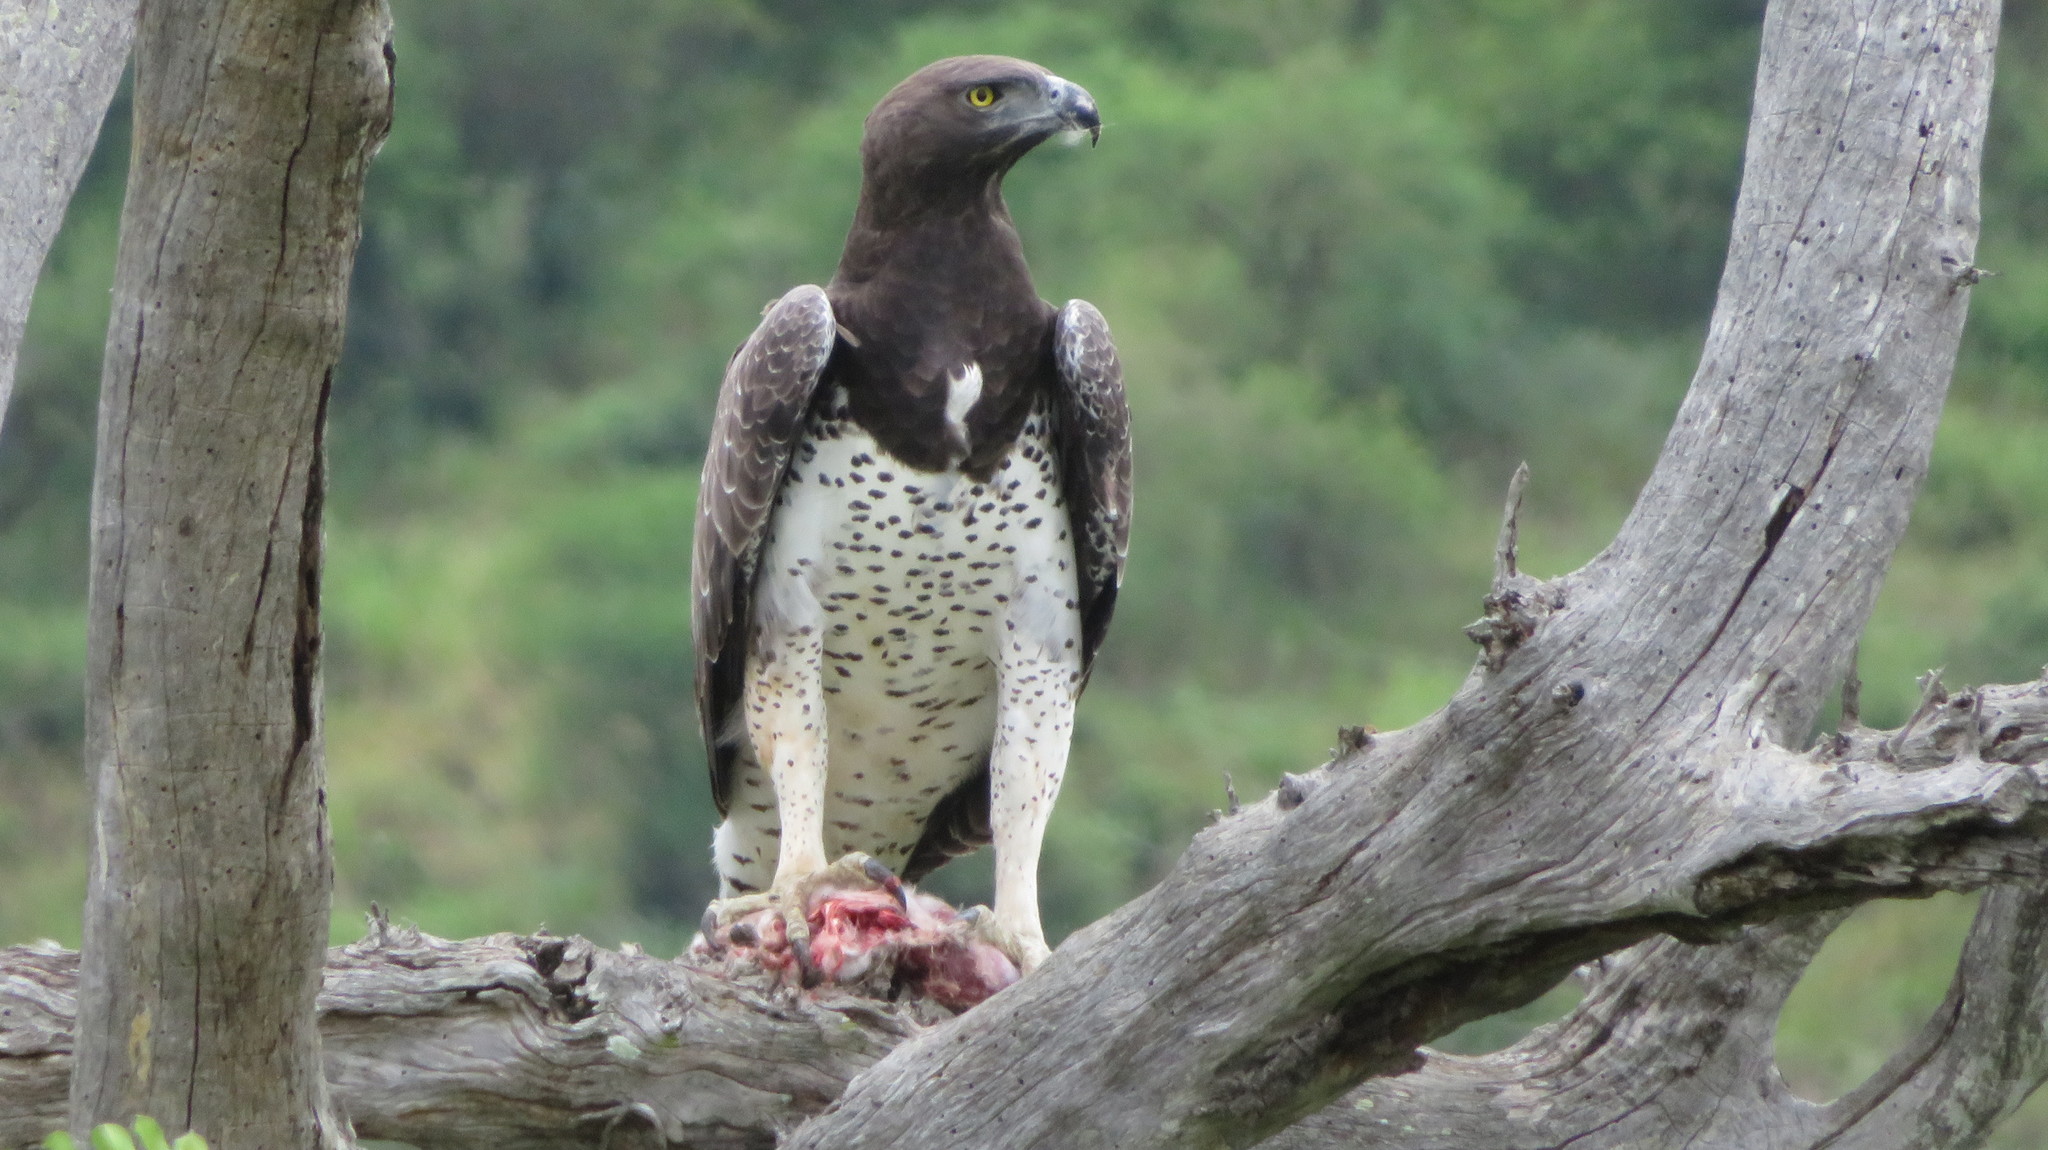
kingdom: Animalia
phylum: Chordata
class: Aves
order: Accipitriformes
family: Accipitridae
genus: Polemaetus
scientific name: Polemaetus bellicosus
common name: Martial eagle
